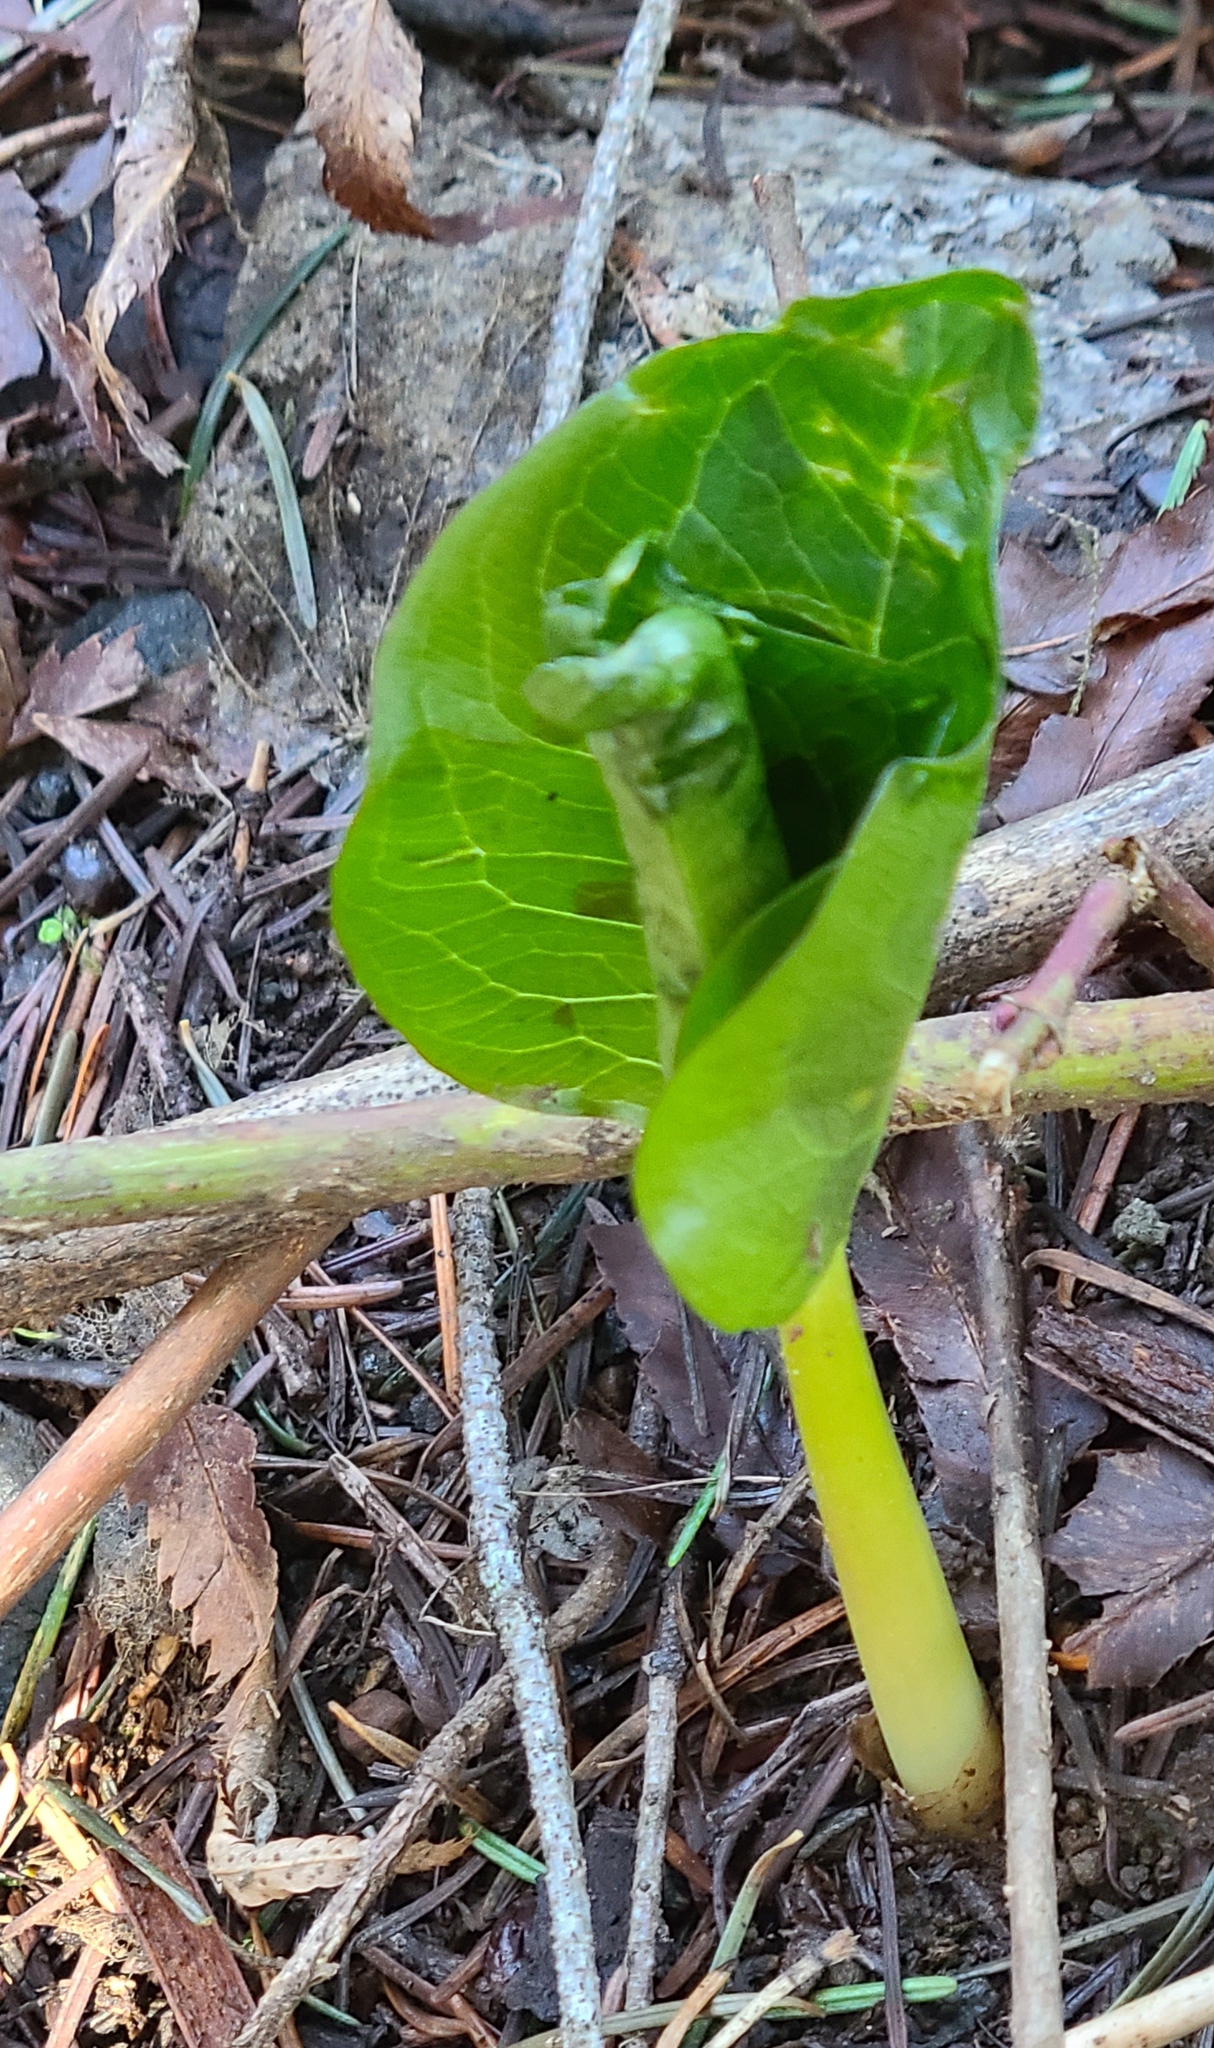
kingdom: Plantae
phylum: Tracheophyta
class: Liliopsida
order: Liliales
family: Melanthiaceae
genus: Trillium
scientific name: Trillium
